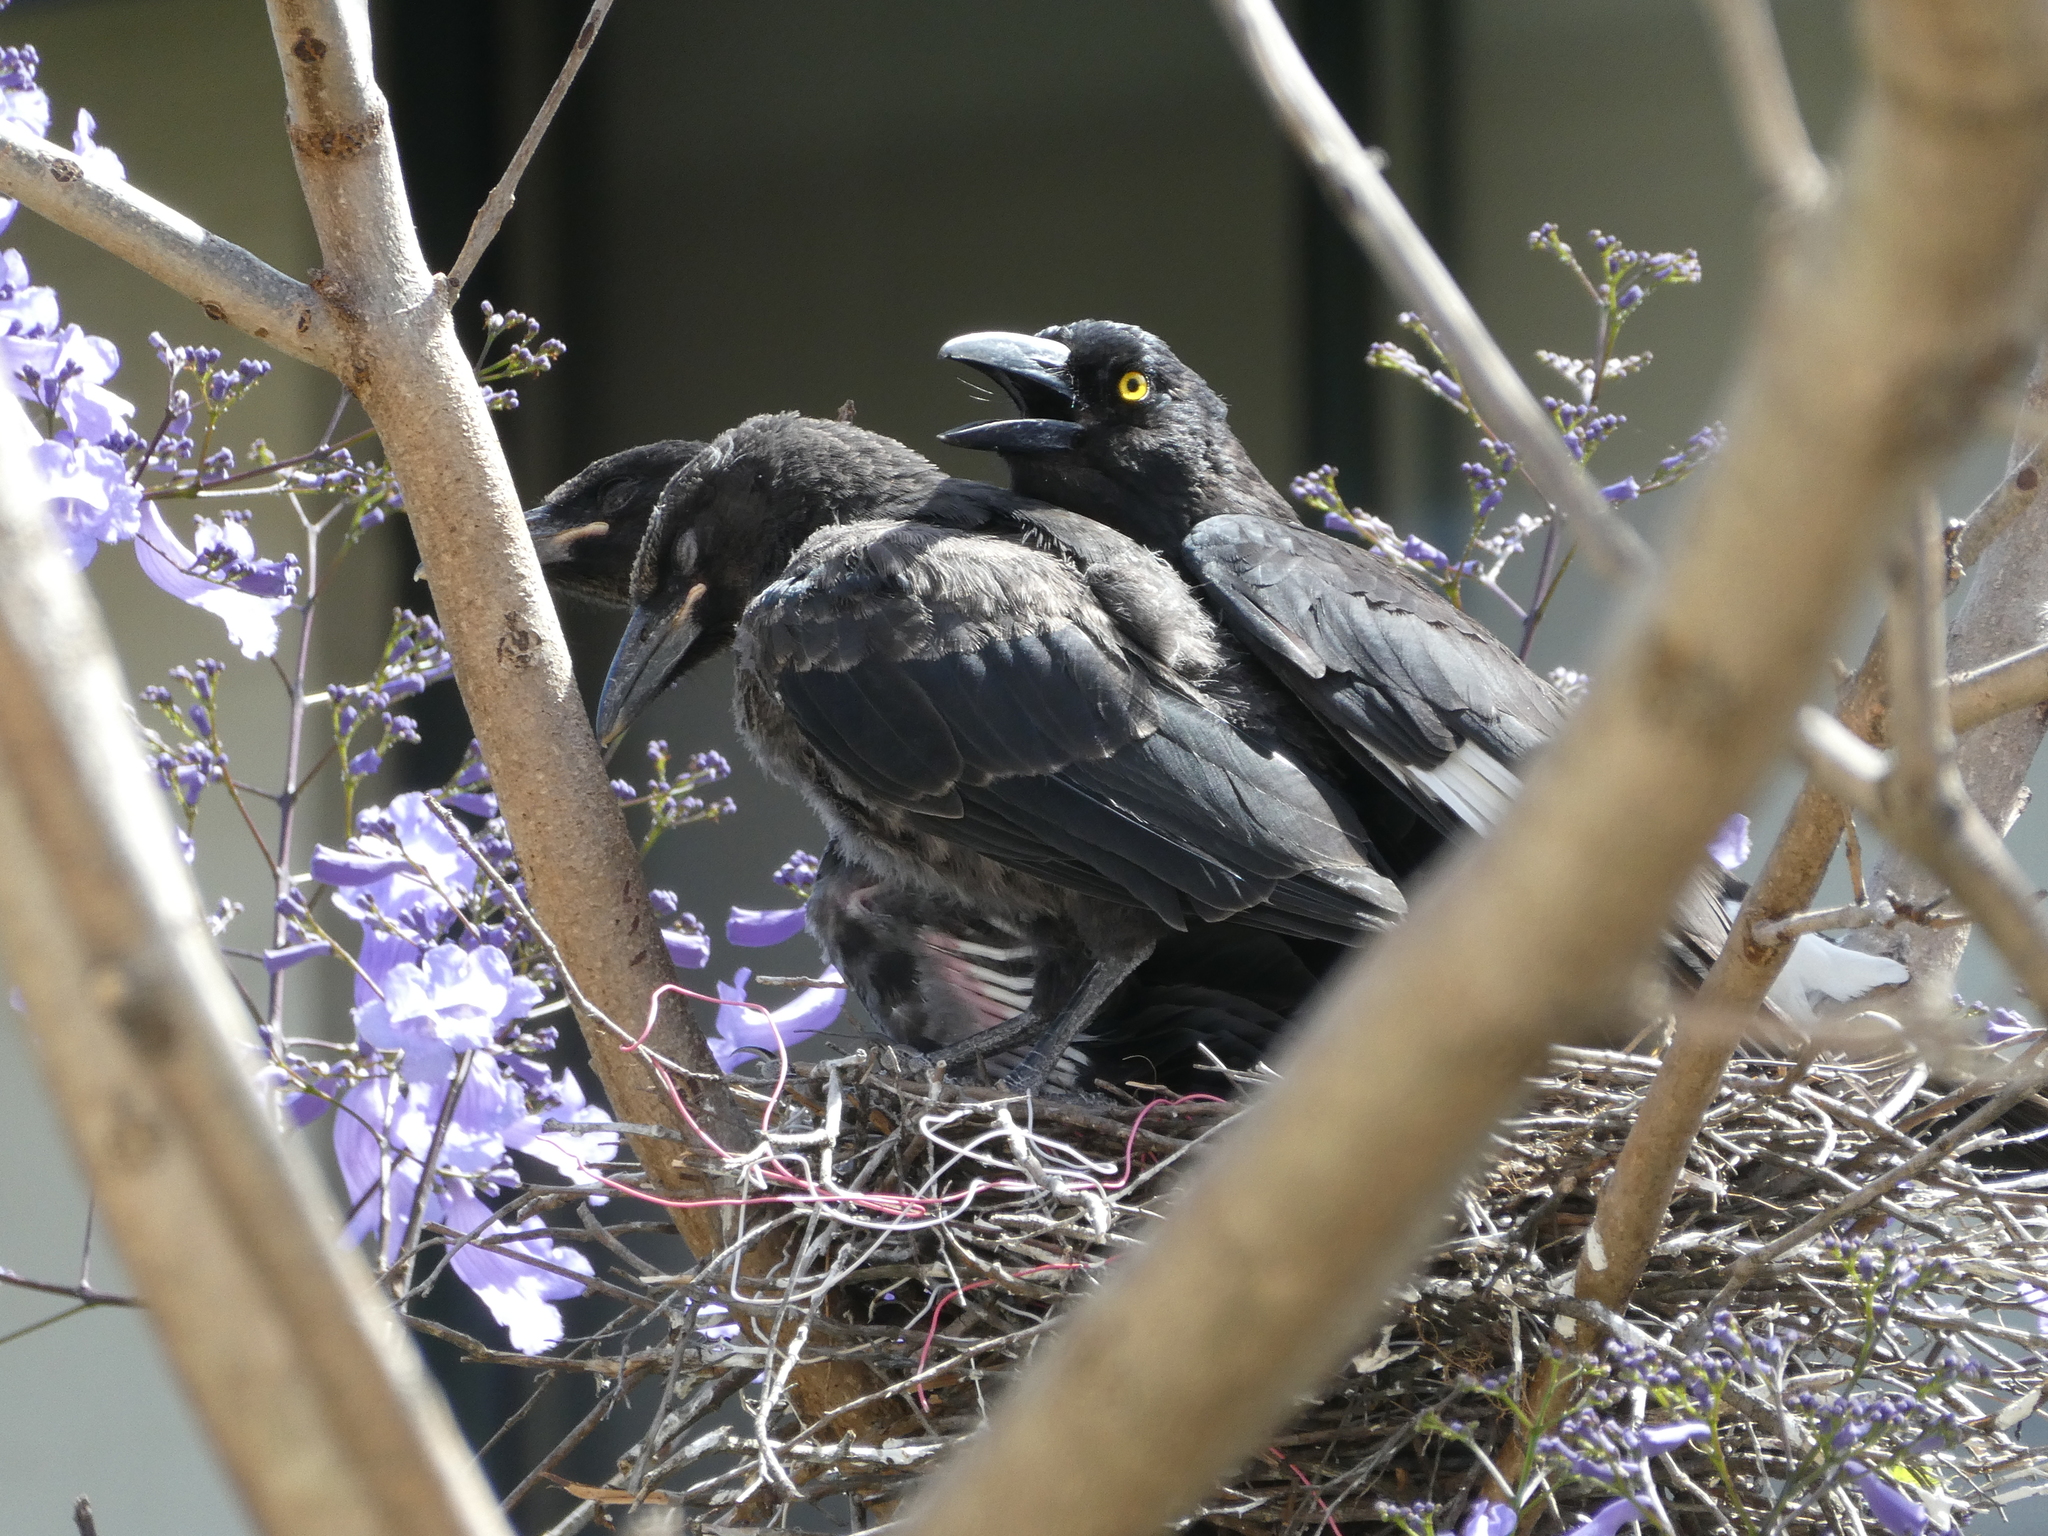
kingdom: Animalia
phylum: Chordata
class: Aves
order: Passeriformes
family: Cracticidae
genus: Strepera
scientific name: Strepera graculina
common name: Pied currawong
